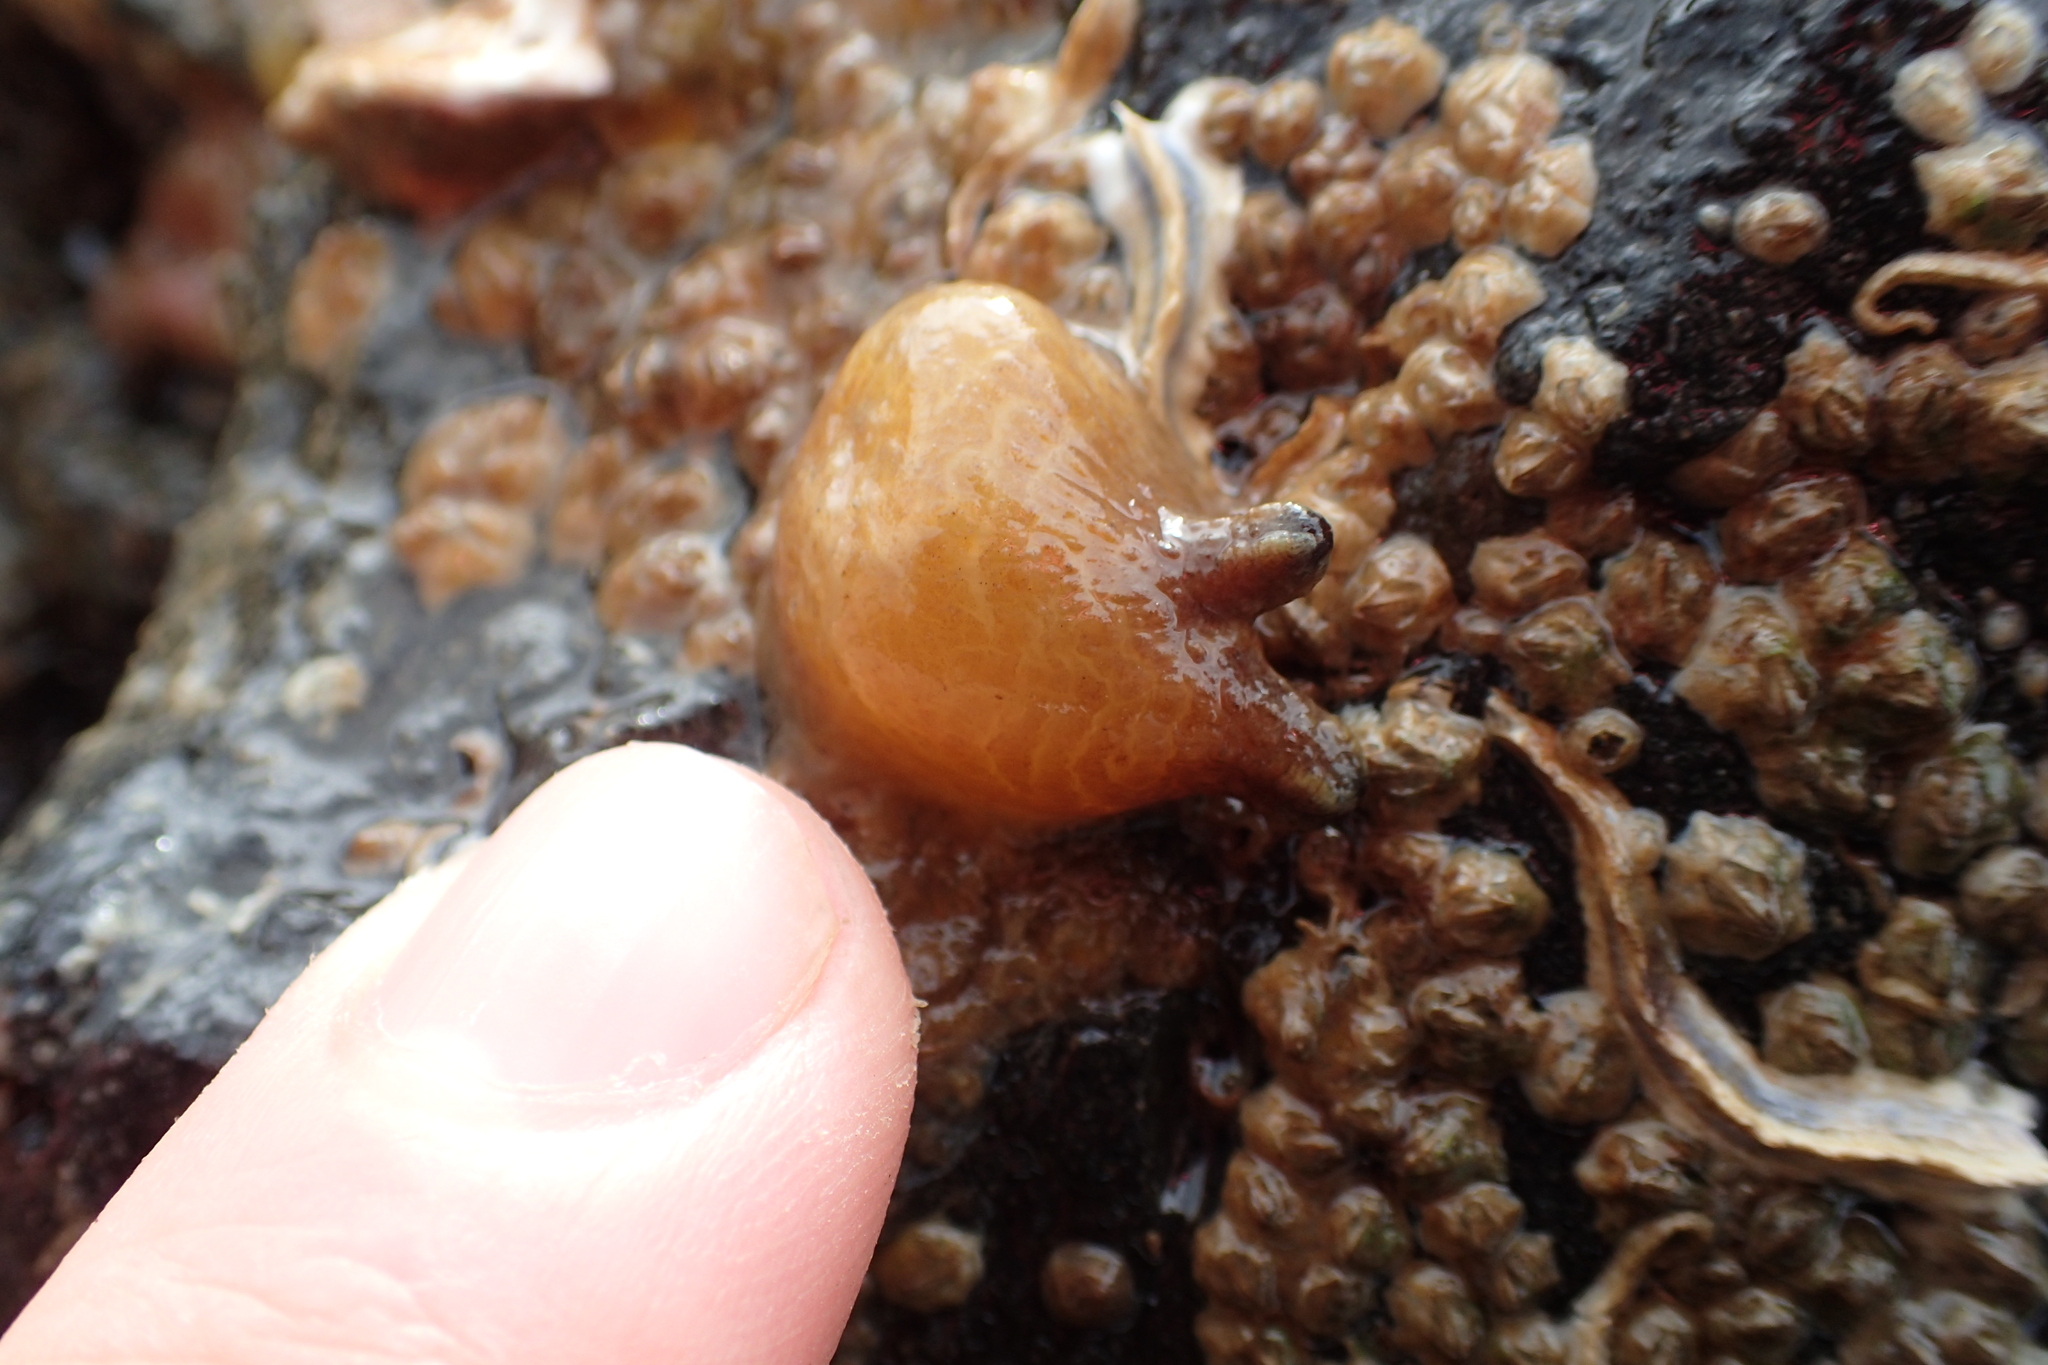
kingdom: Animalia
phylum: Chordata
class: Ascidiacea
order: Stolidobranchia
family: Styelidae
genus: Asterocarpa
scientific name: Asterocarpa humilis
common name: Compass sea squirt
